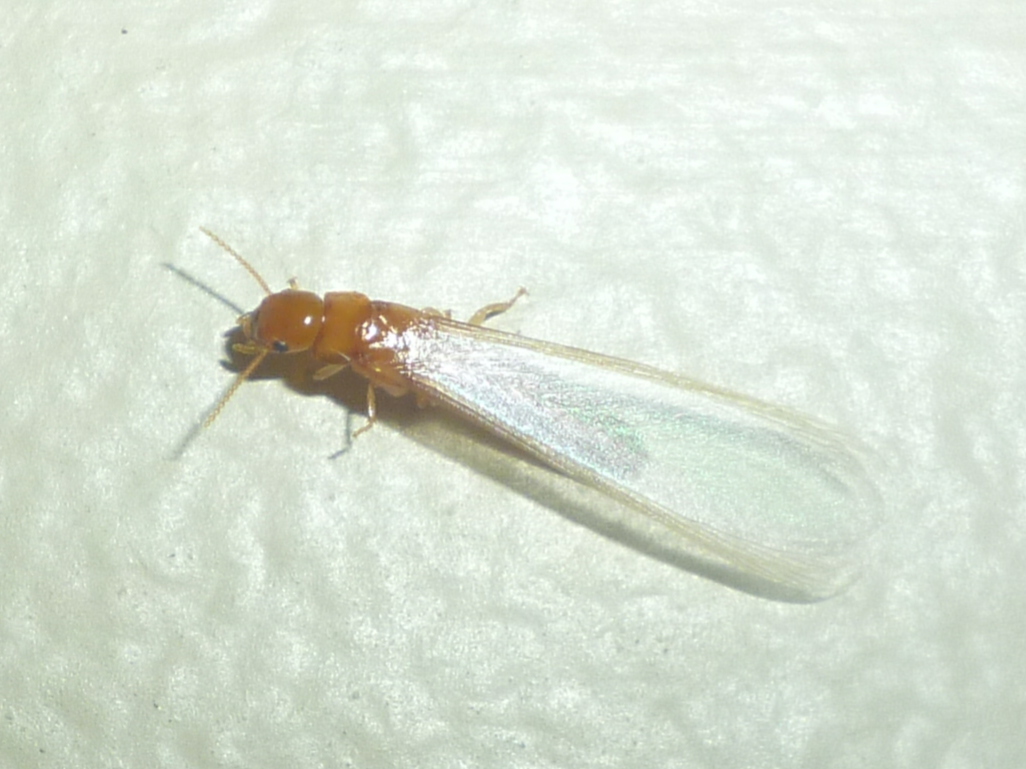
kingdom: Animalia
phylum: Arthropoda
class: Insecta
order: Blattodea
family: Kalotermitidae
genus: Incisitermes
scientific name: Incisitermes snyderi
